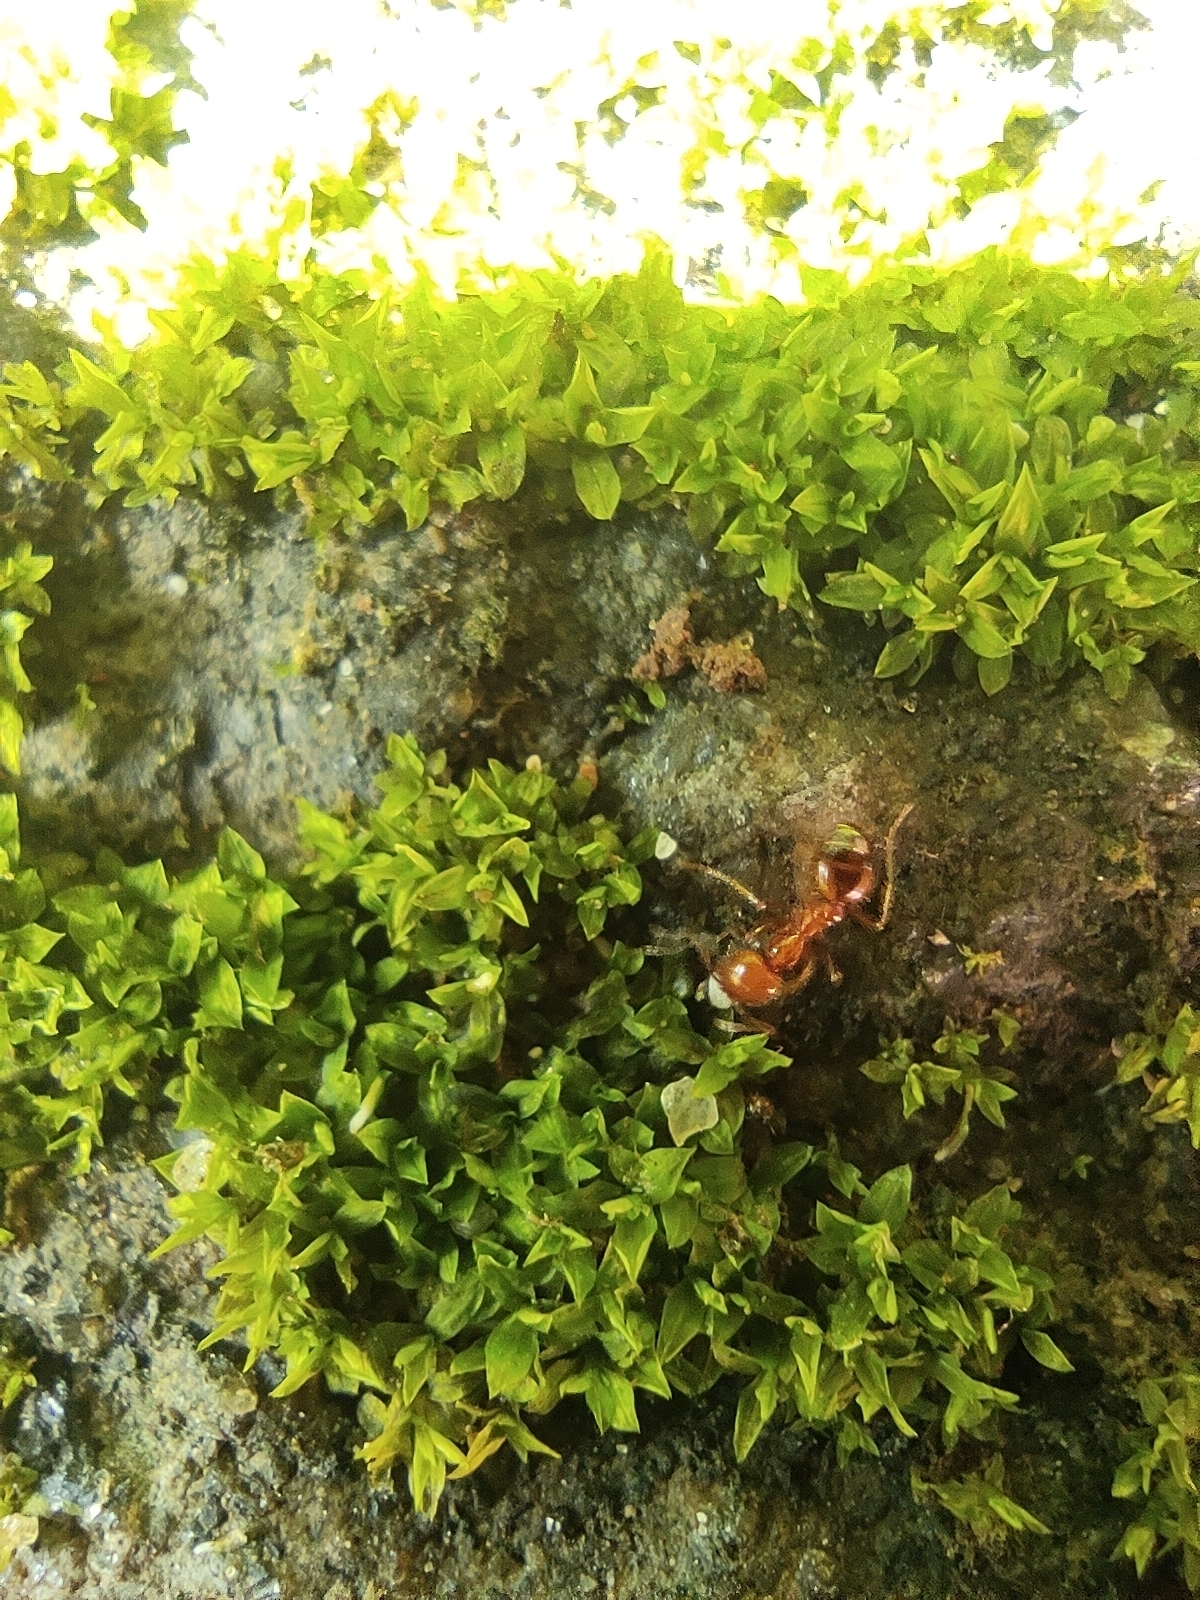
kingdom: Animalia
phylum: Arthropoda
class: Insecta
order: Hymenoptera
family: Formicidae
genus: Solenopsis
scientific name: Solenopsis geminata
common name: Tropical fire ant
